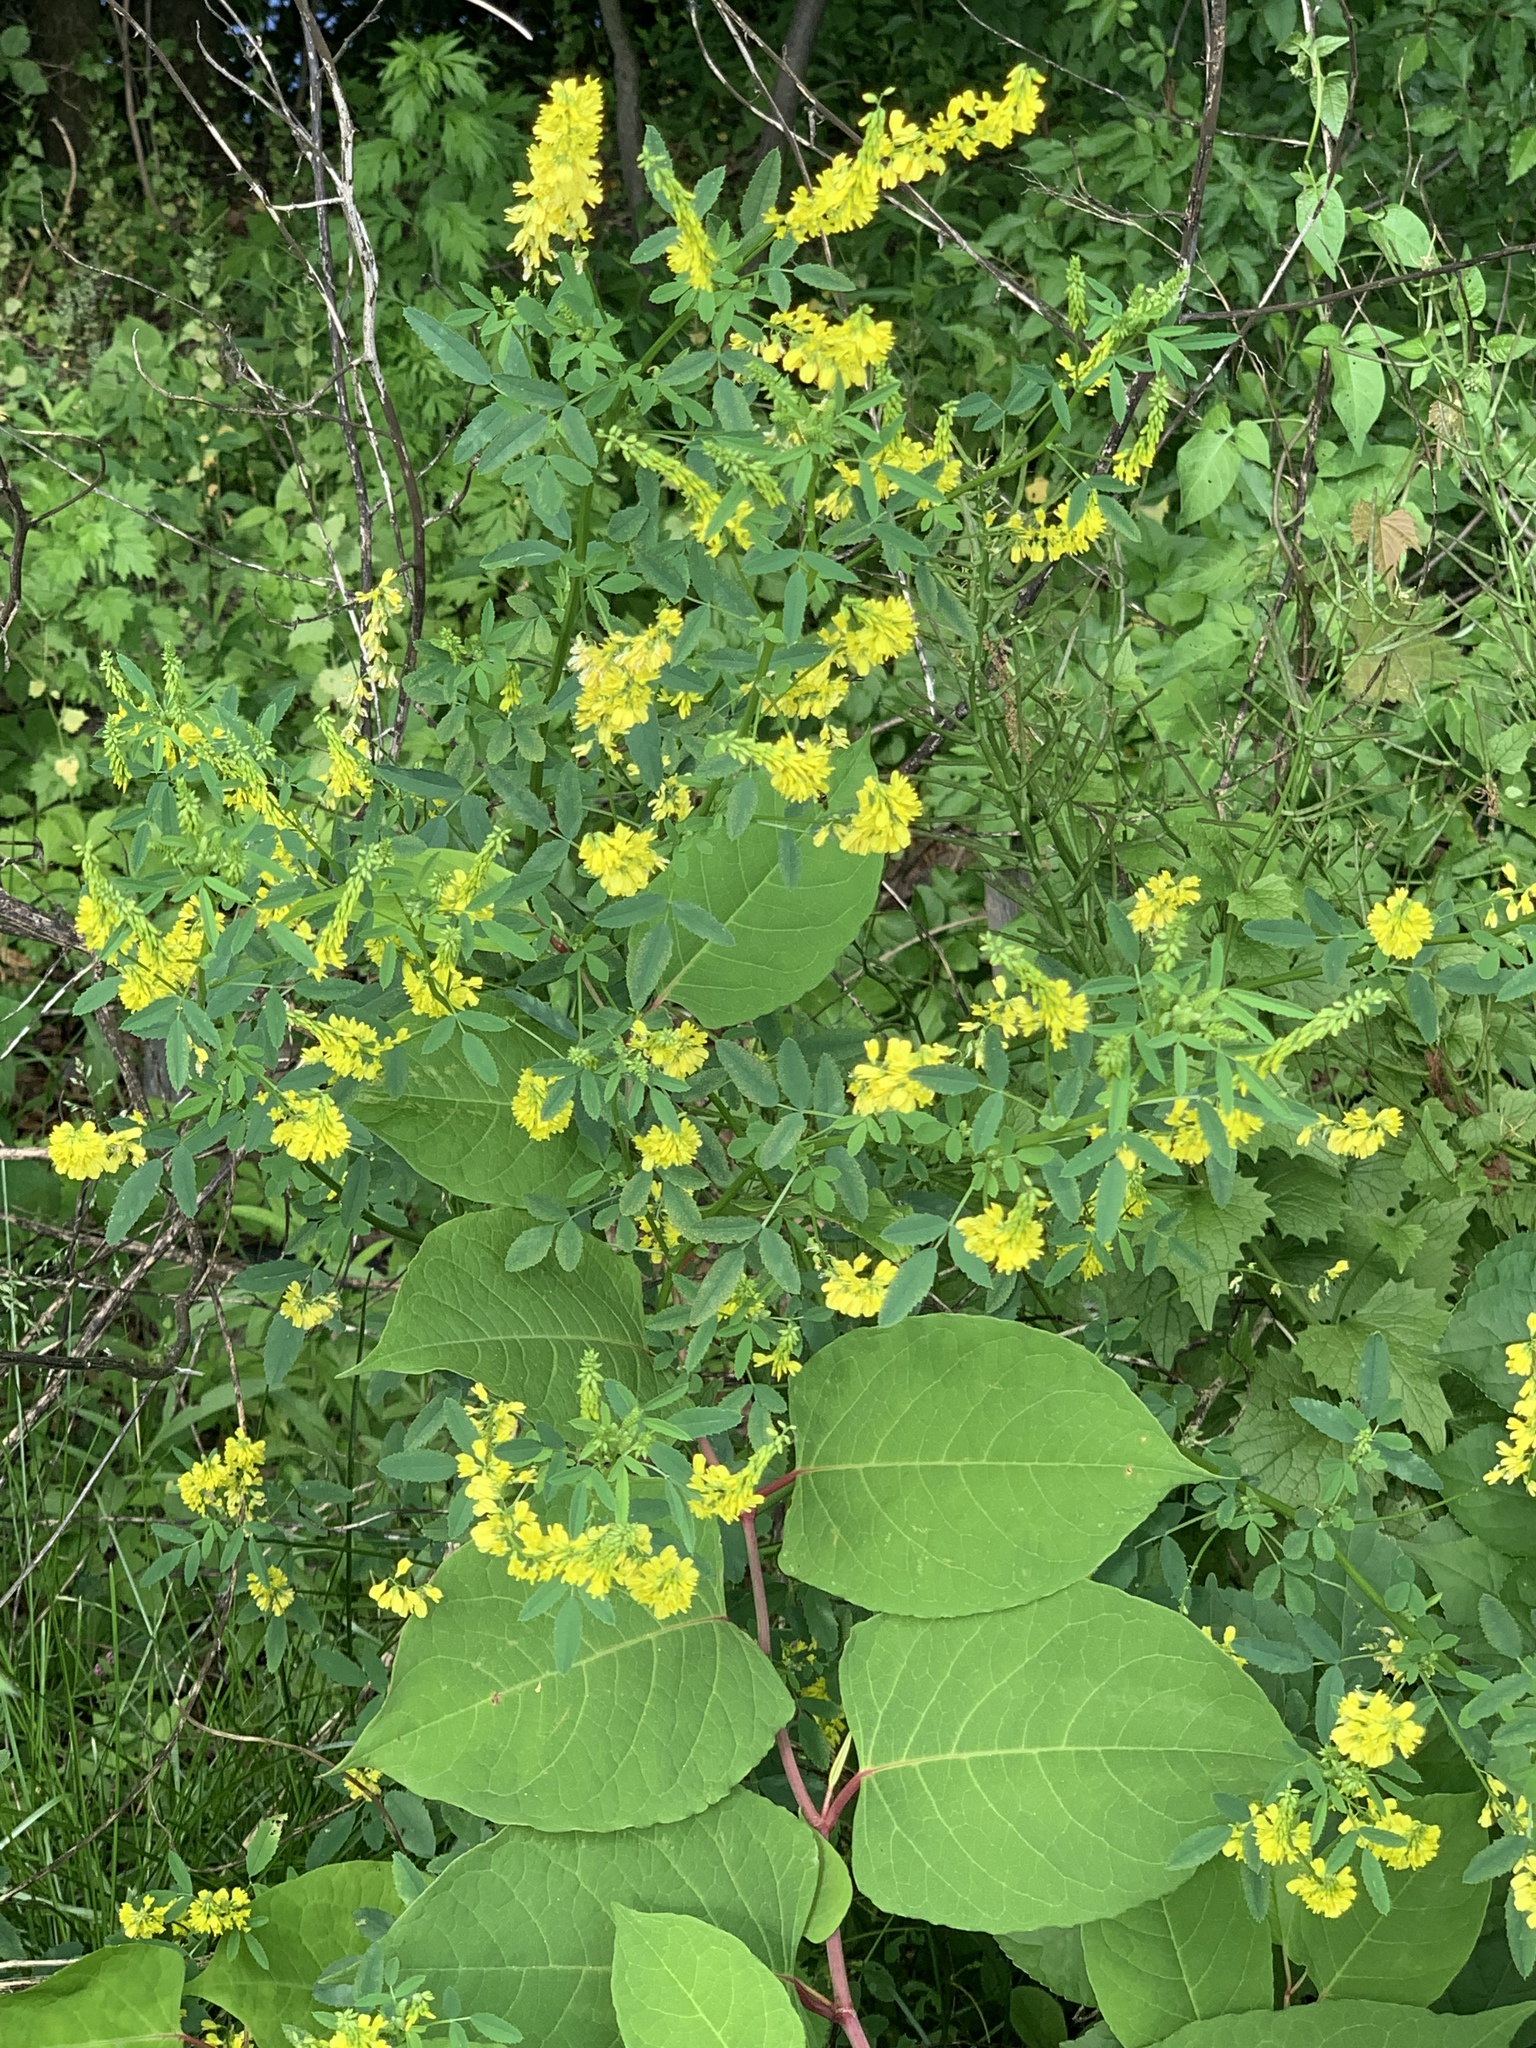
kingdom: Plantae
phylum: Tracheophyta
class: Magnoliopsida
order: Fabales
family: Fabaceae
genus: Melilotus
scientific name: Melilotus officinalis
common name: Sweetclover
